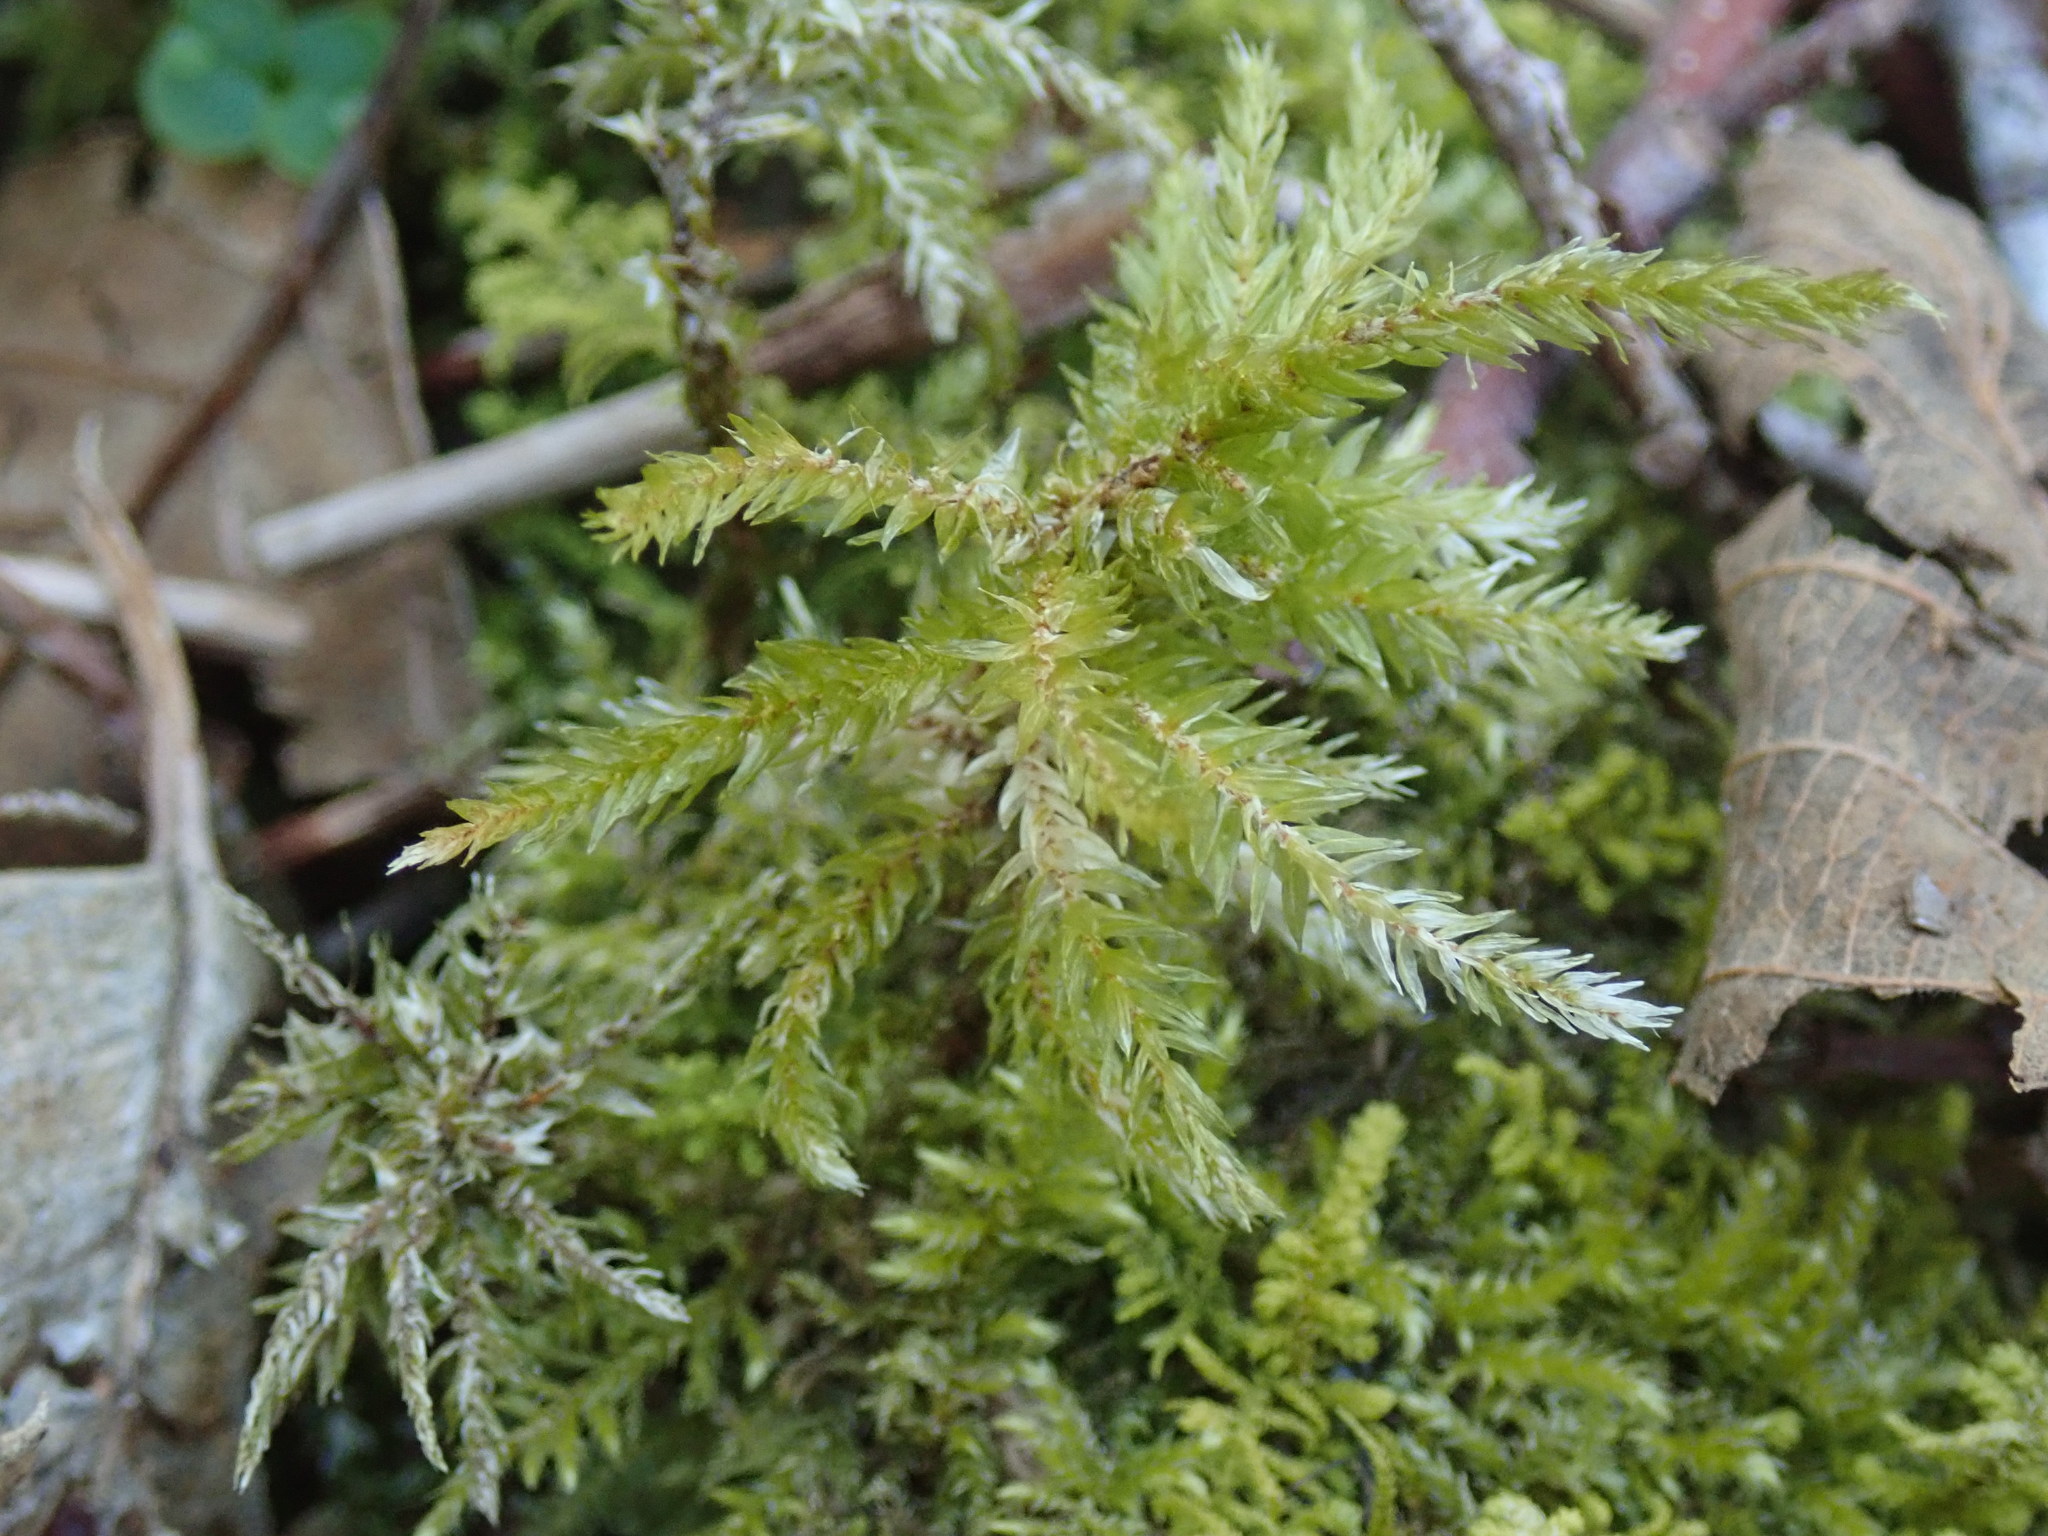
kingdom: Plantae
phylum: Bryophyta
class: Bryopsida
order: Hypnales
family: Climaciaceae
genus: Climacium
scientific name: Climacium dendroides
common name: Northern tree moss
